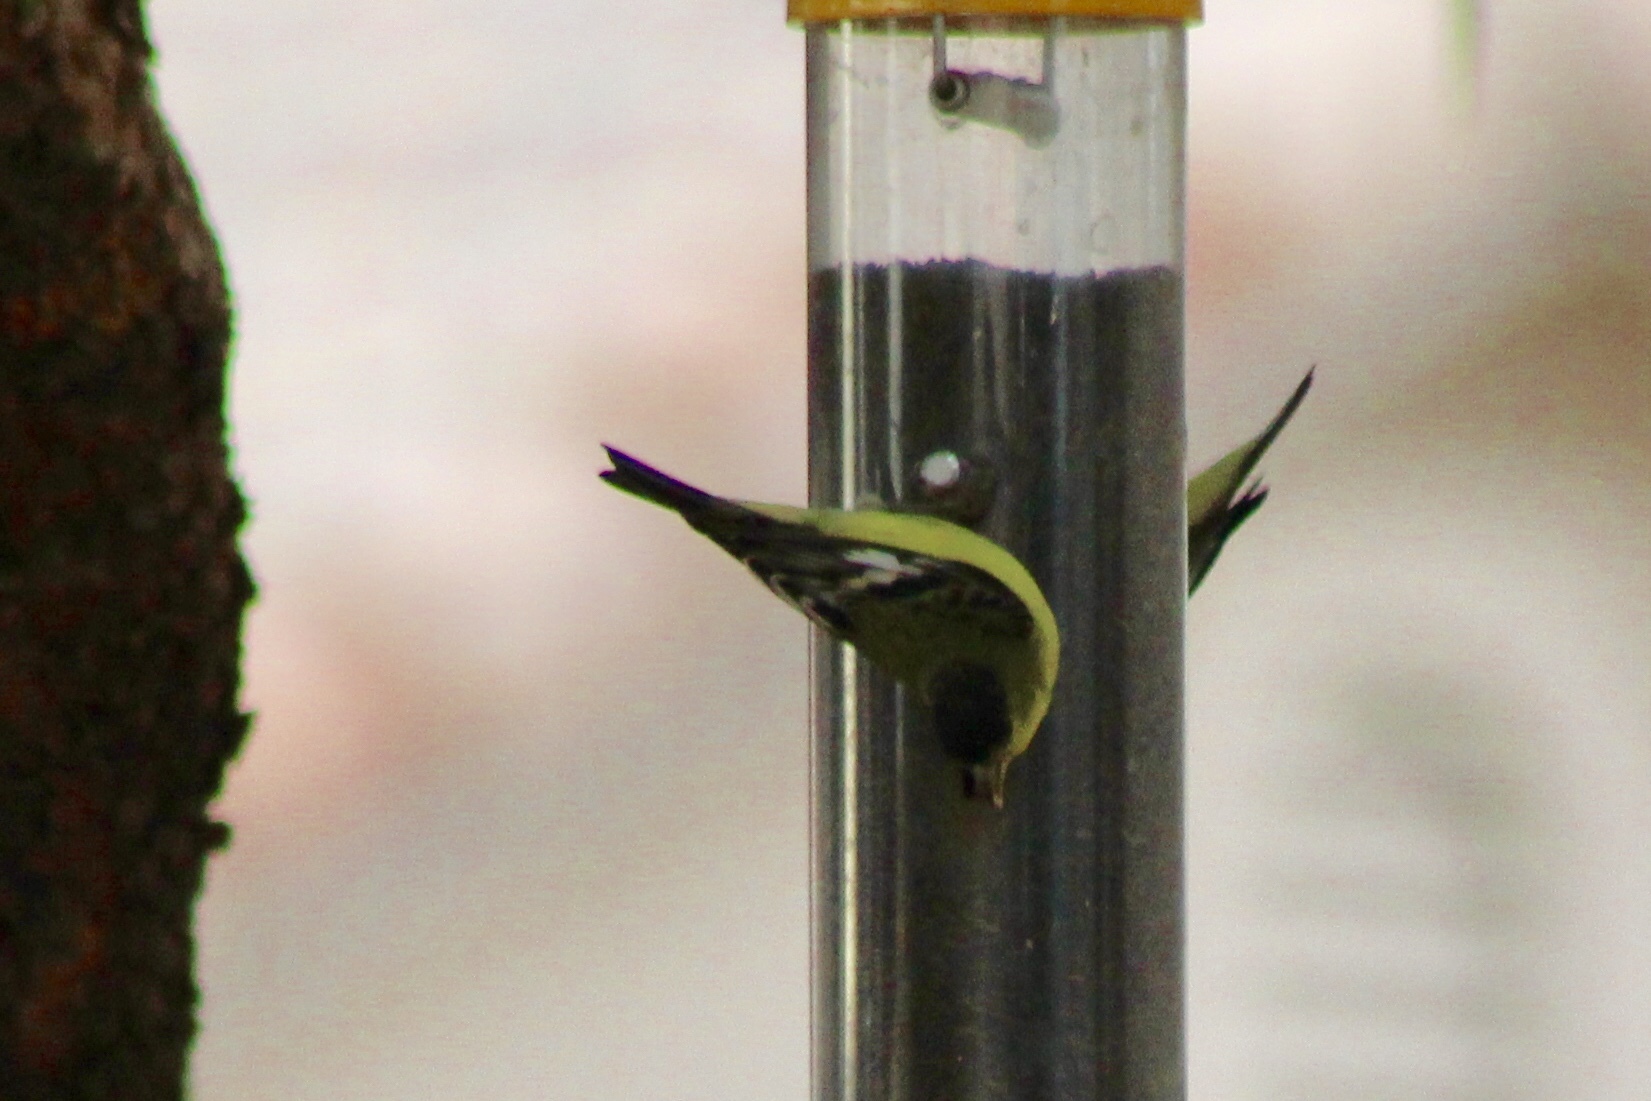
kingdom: Animalia
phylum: Chordata
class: Aves
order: Passeriformes
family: Fringillidae
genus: Spinus
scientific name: Spinus psaltria
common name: Lesser goldfinch
